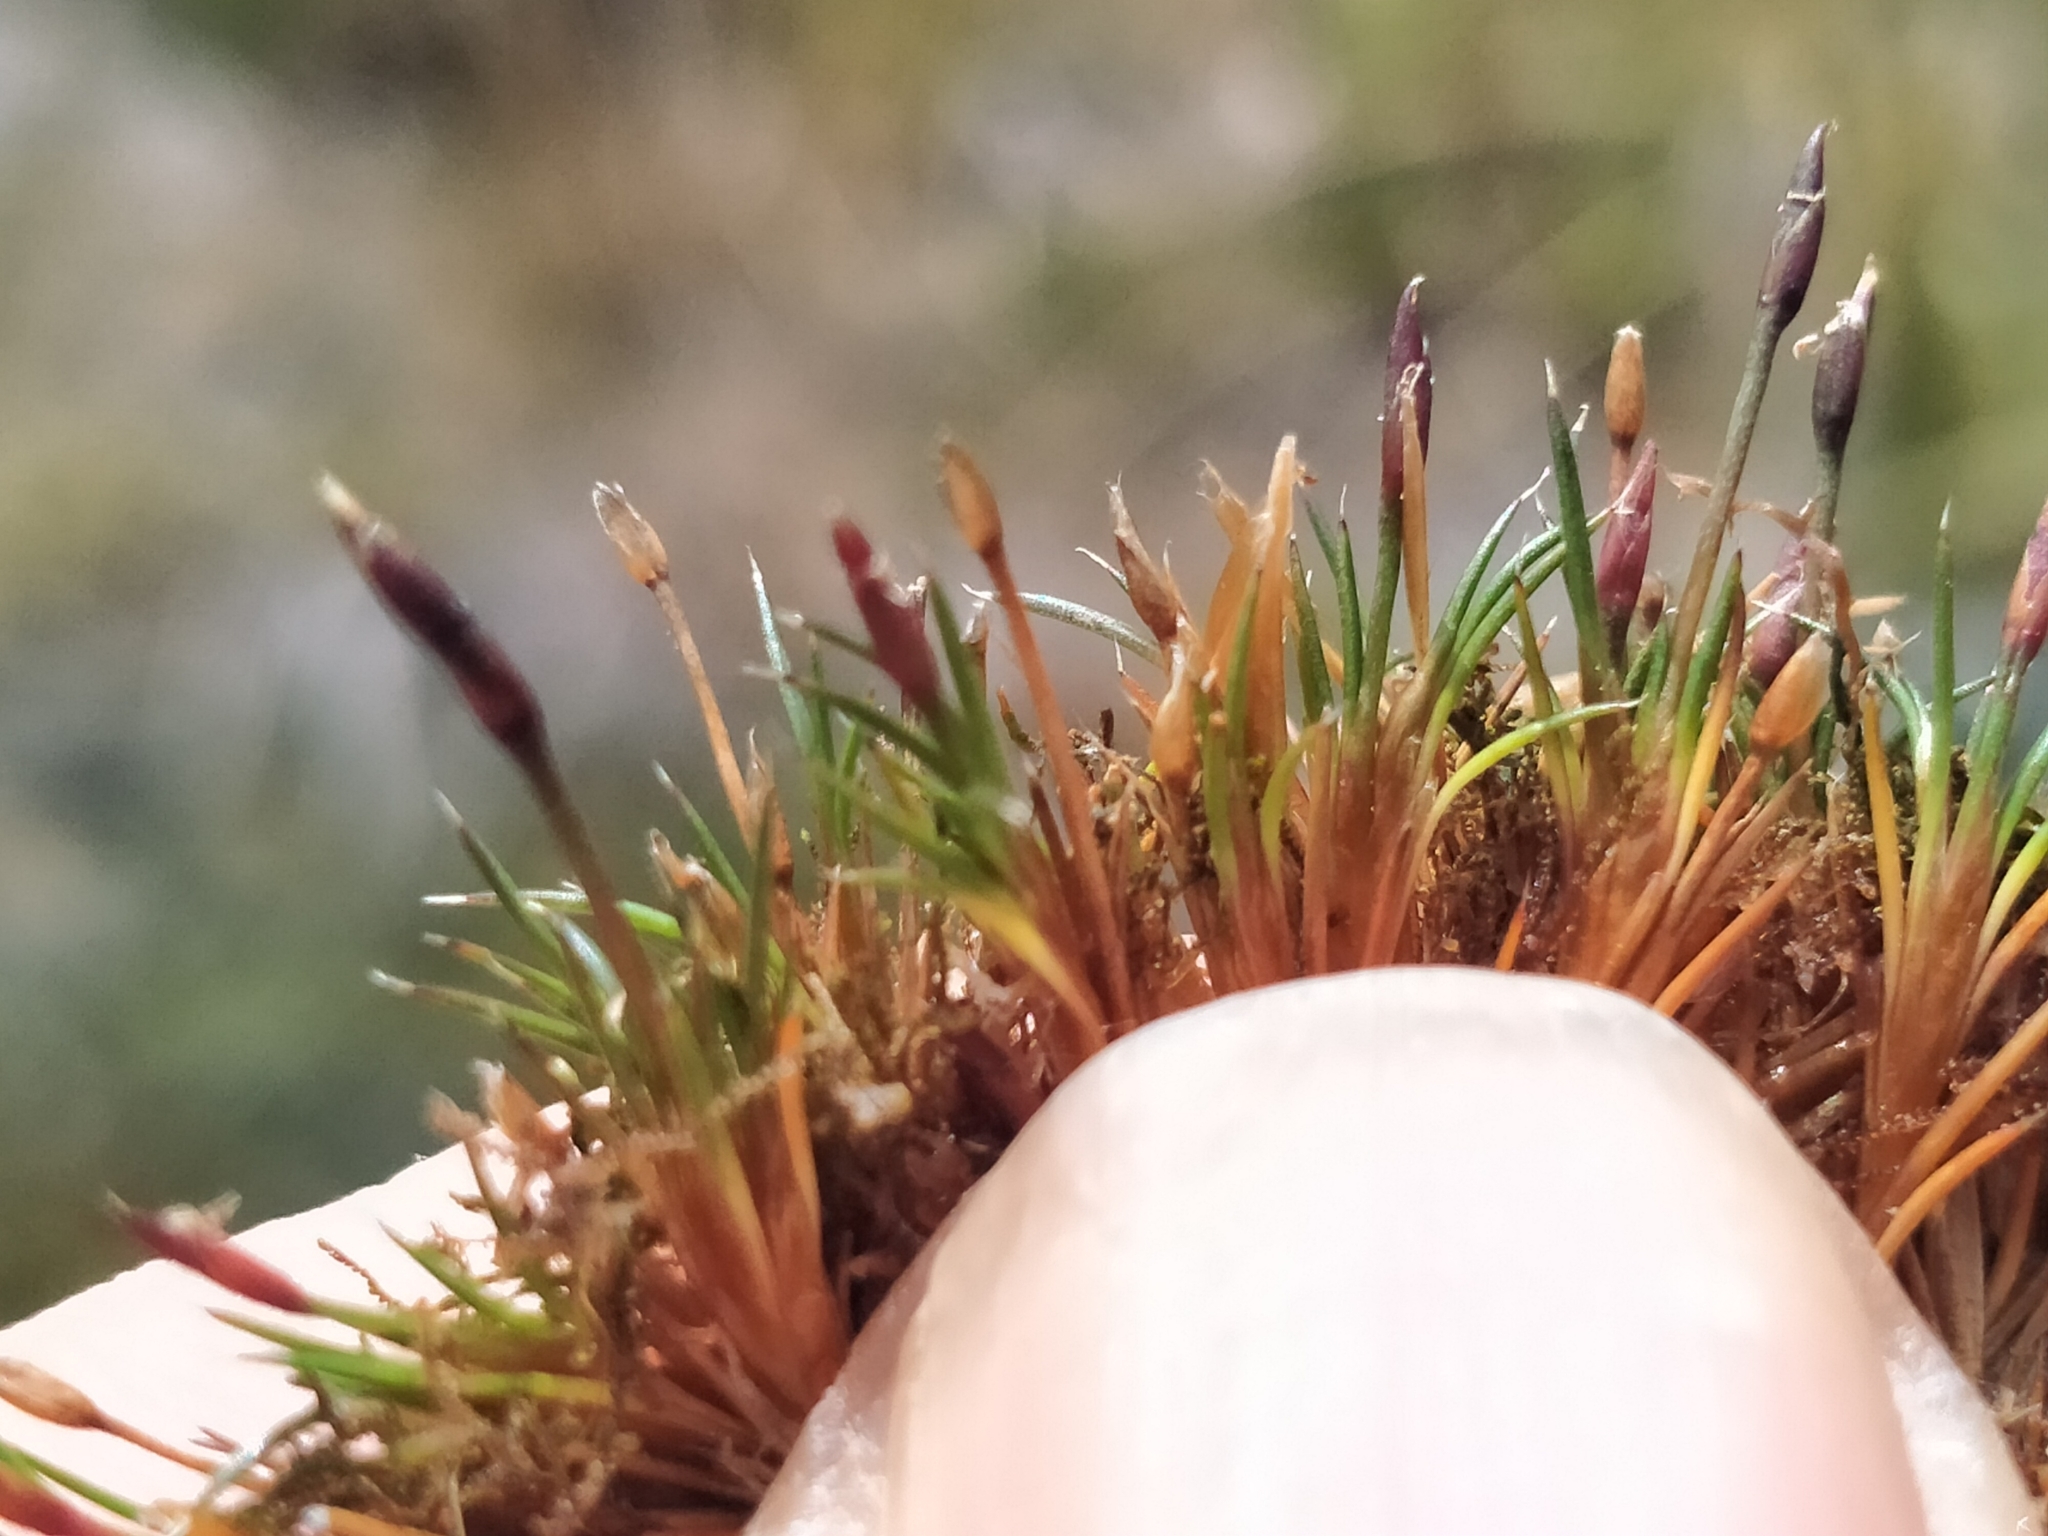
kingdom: Plantae
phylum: Tracheophyta
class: Liliopsida
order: Poales
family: Restionaceae
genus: Gaimardia
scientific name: Gaimardia setacea
